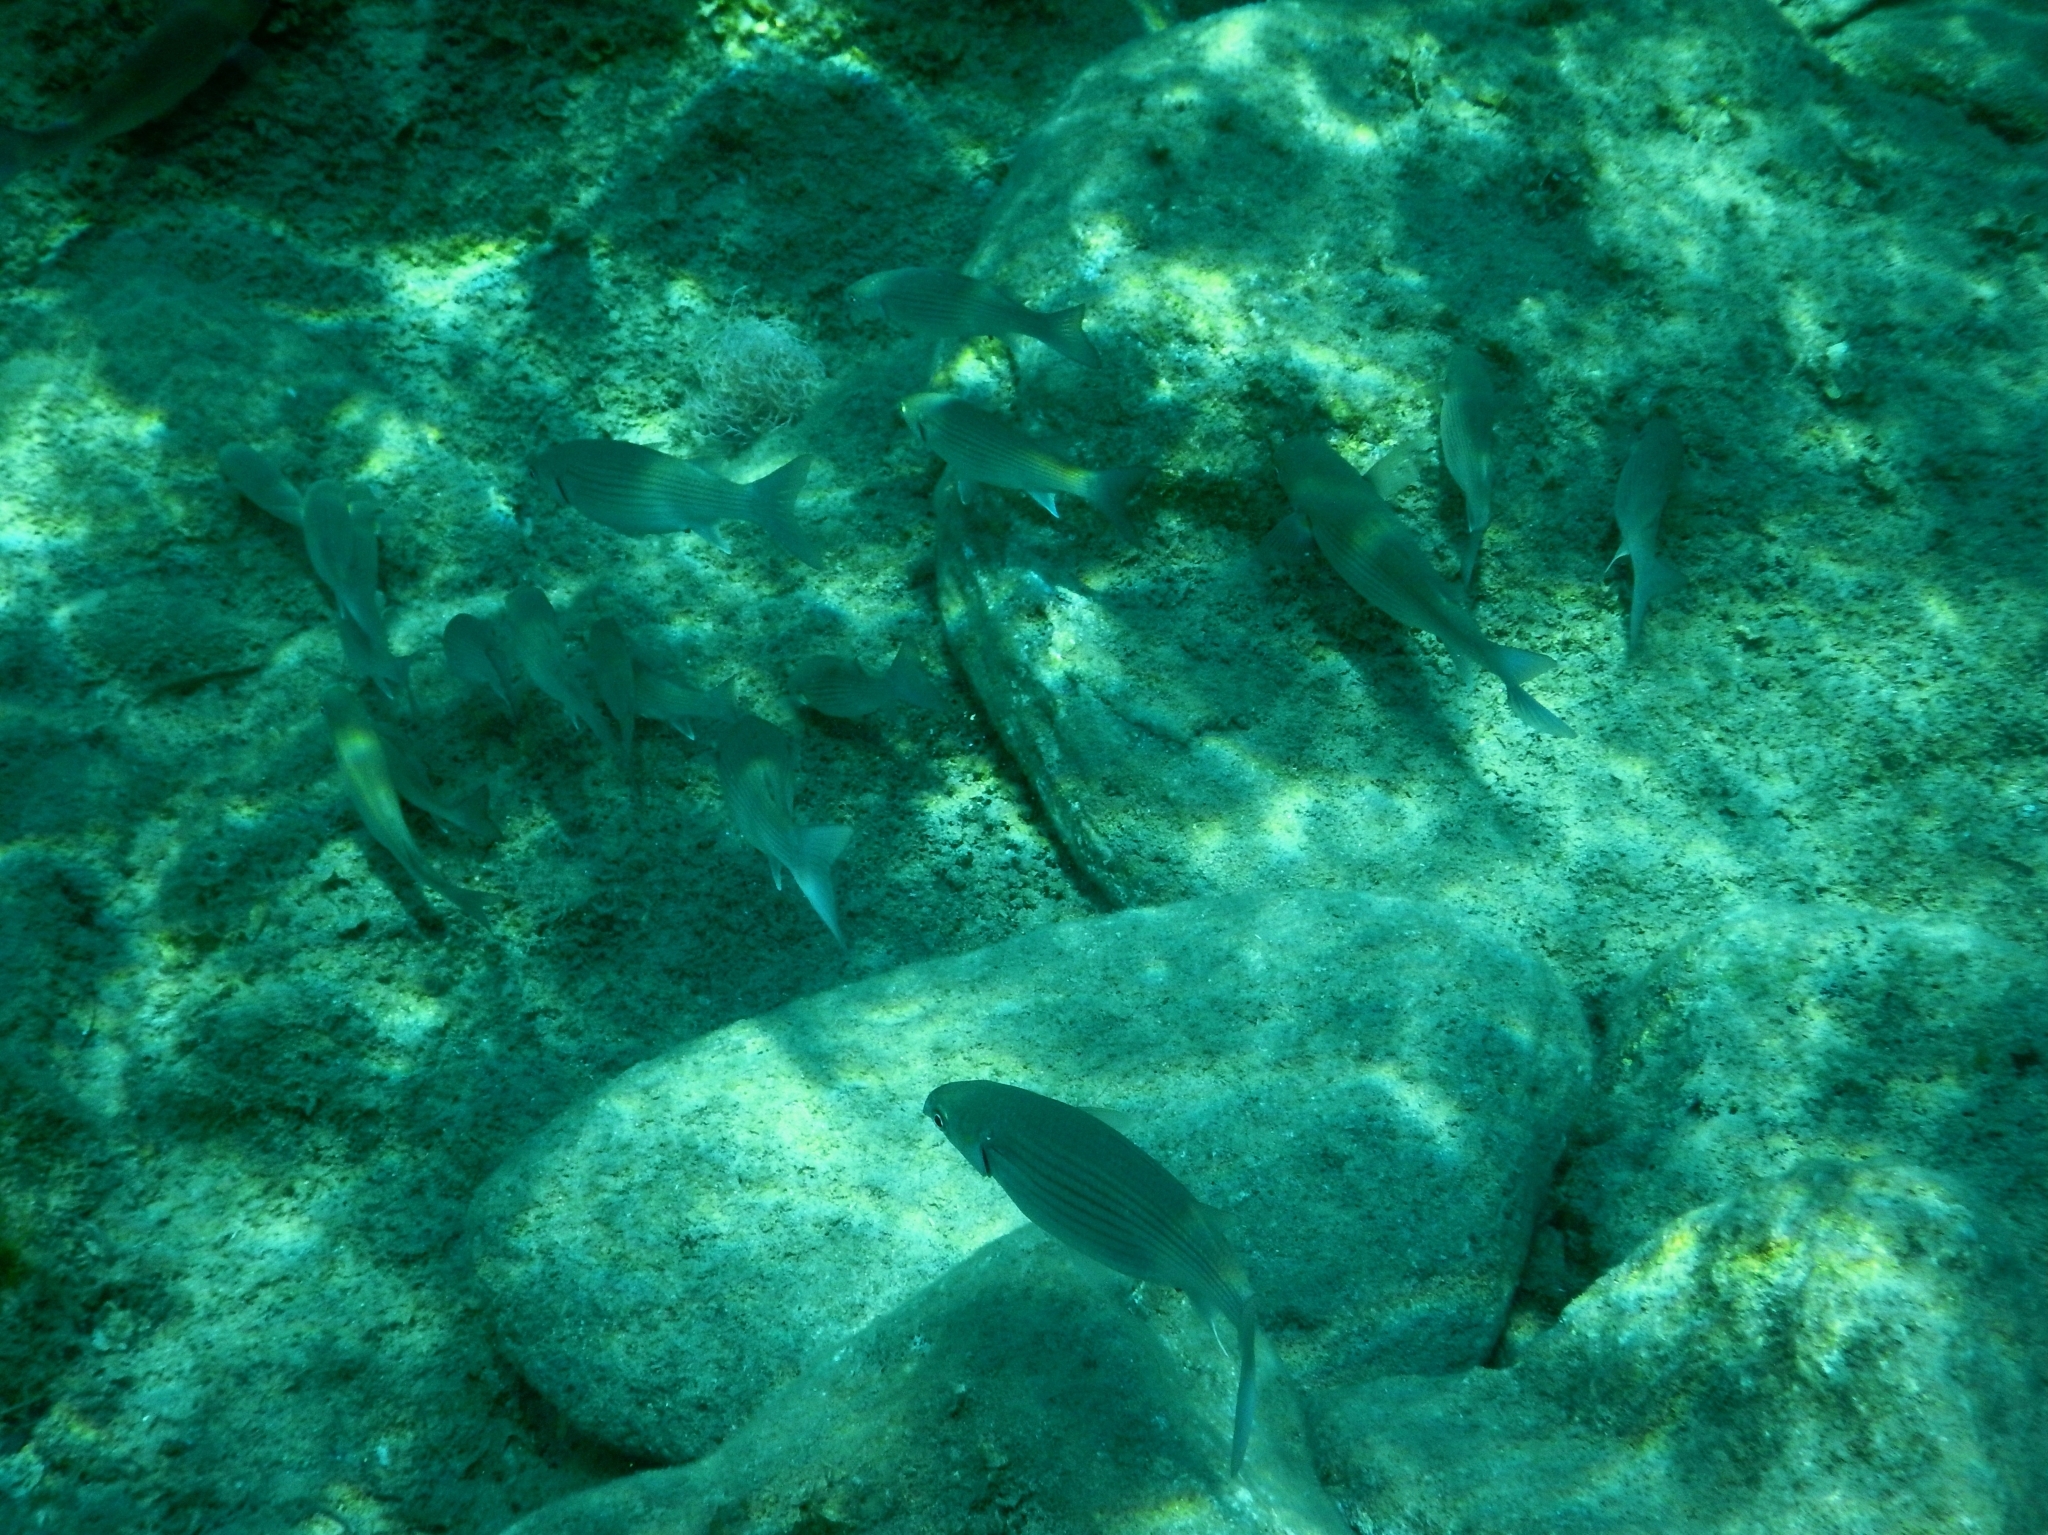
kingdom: Animalia
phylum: Chordata
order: Mugiliformes
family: Mugilidae
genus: Chelon
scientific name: Chelon
